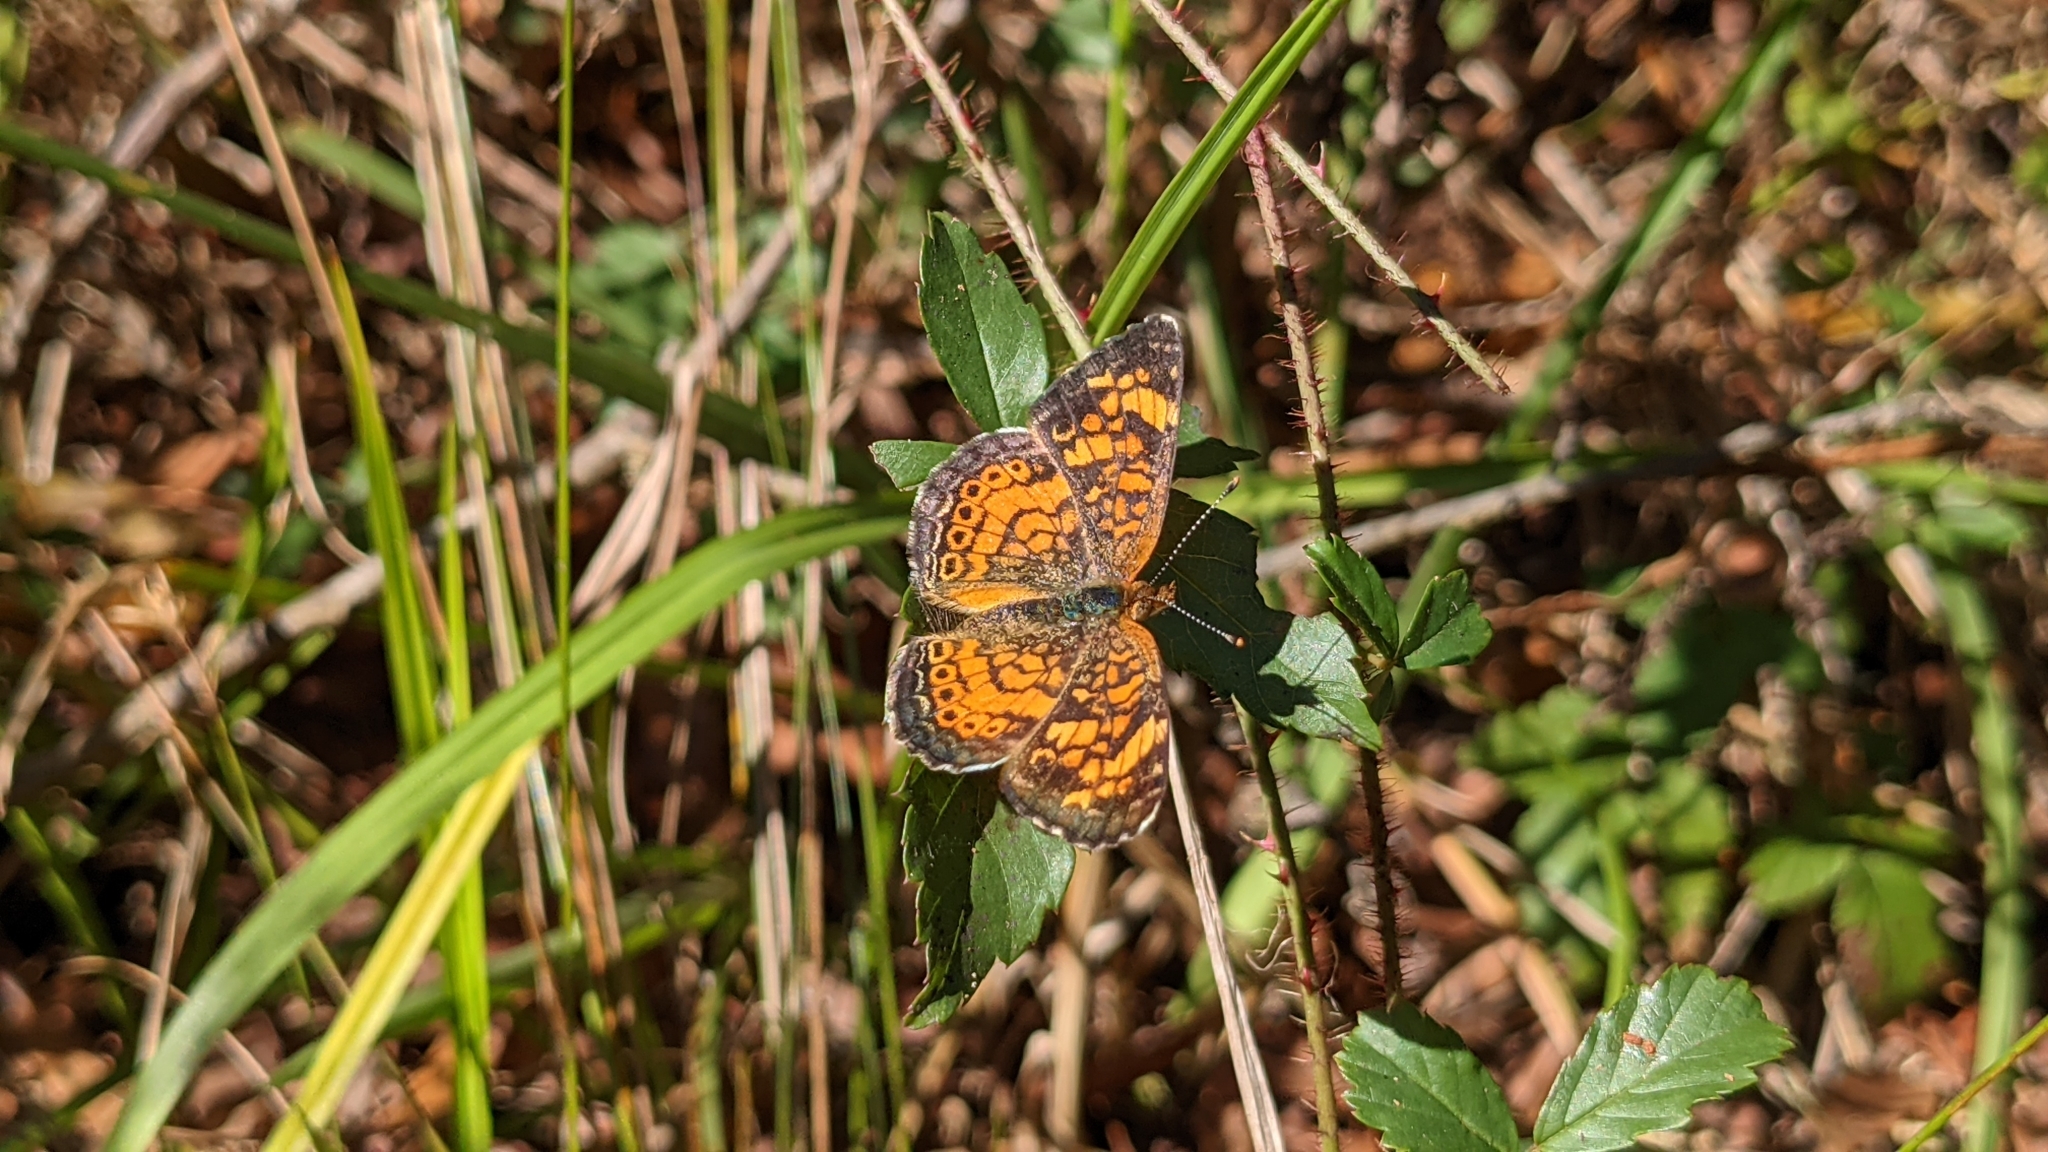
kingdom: Animalia
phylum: Arthropoda
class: Insecta
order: Lepidoptera
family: Nymphalidae
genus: Phyciodes
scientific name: Phyciodes tharos
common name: Pearl crescent
